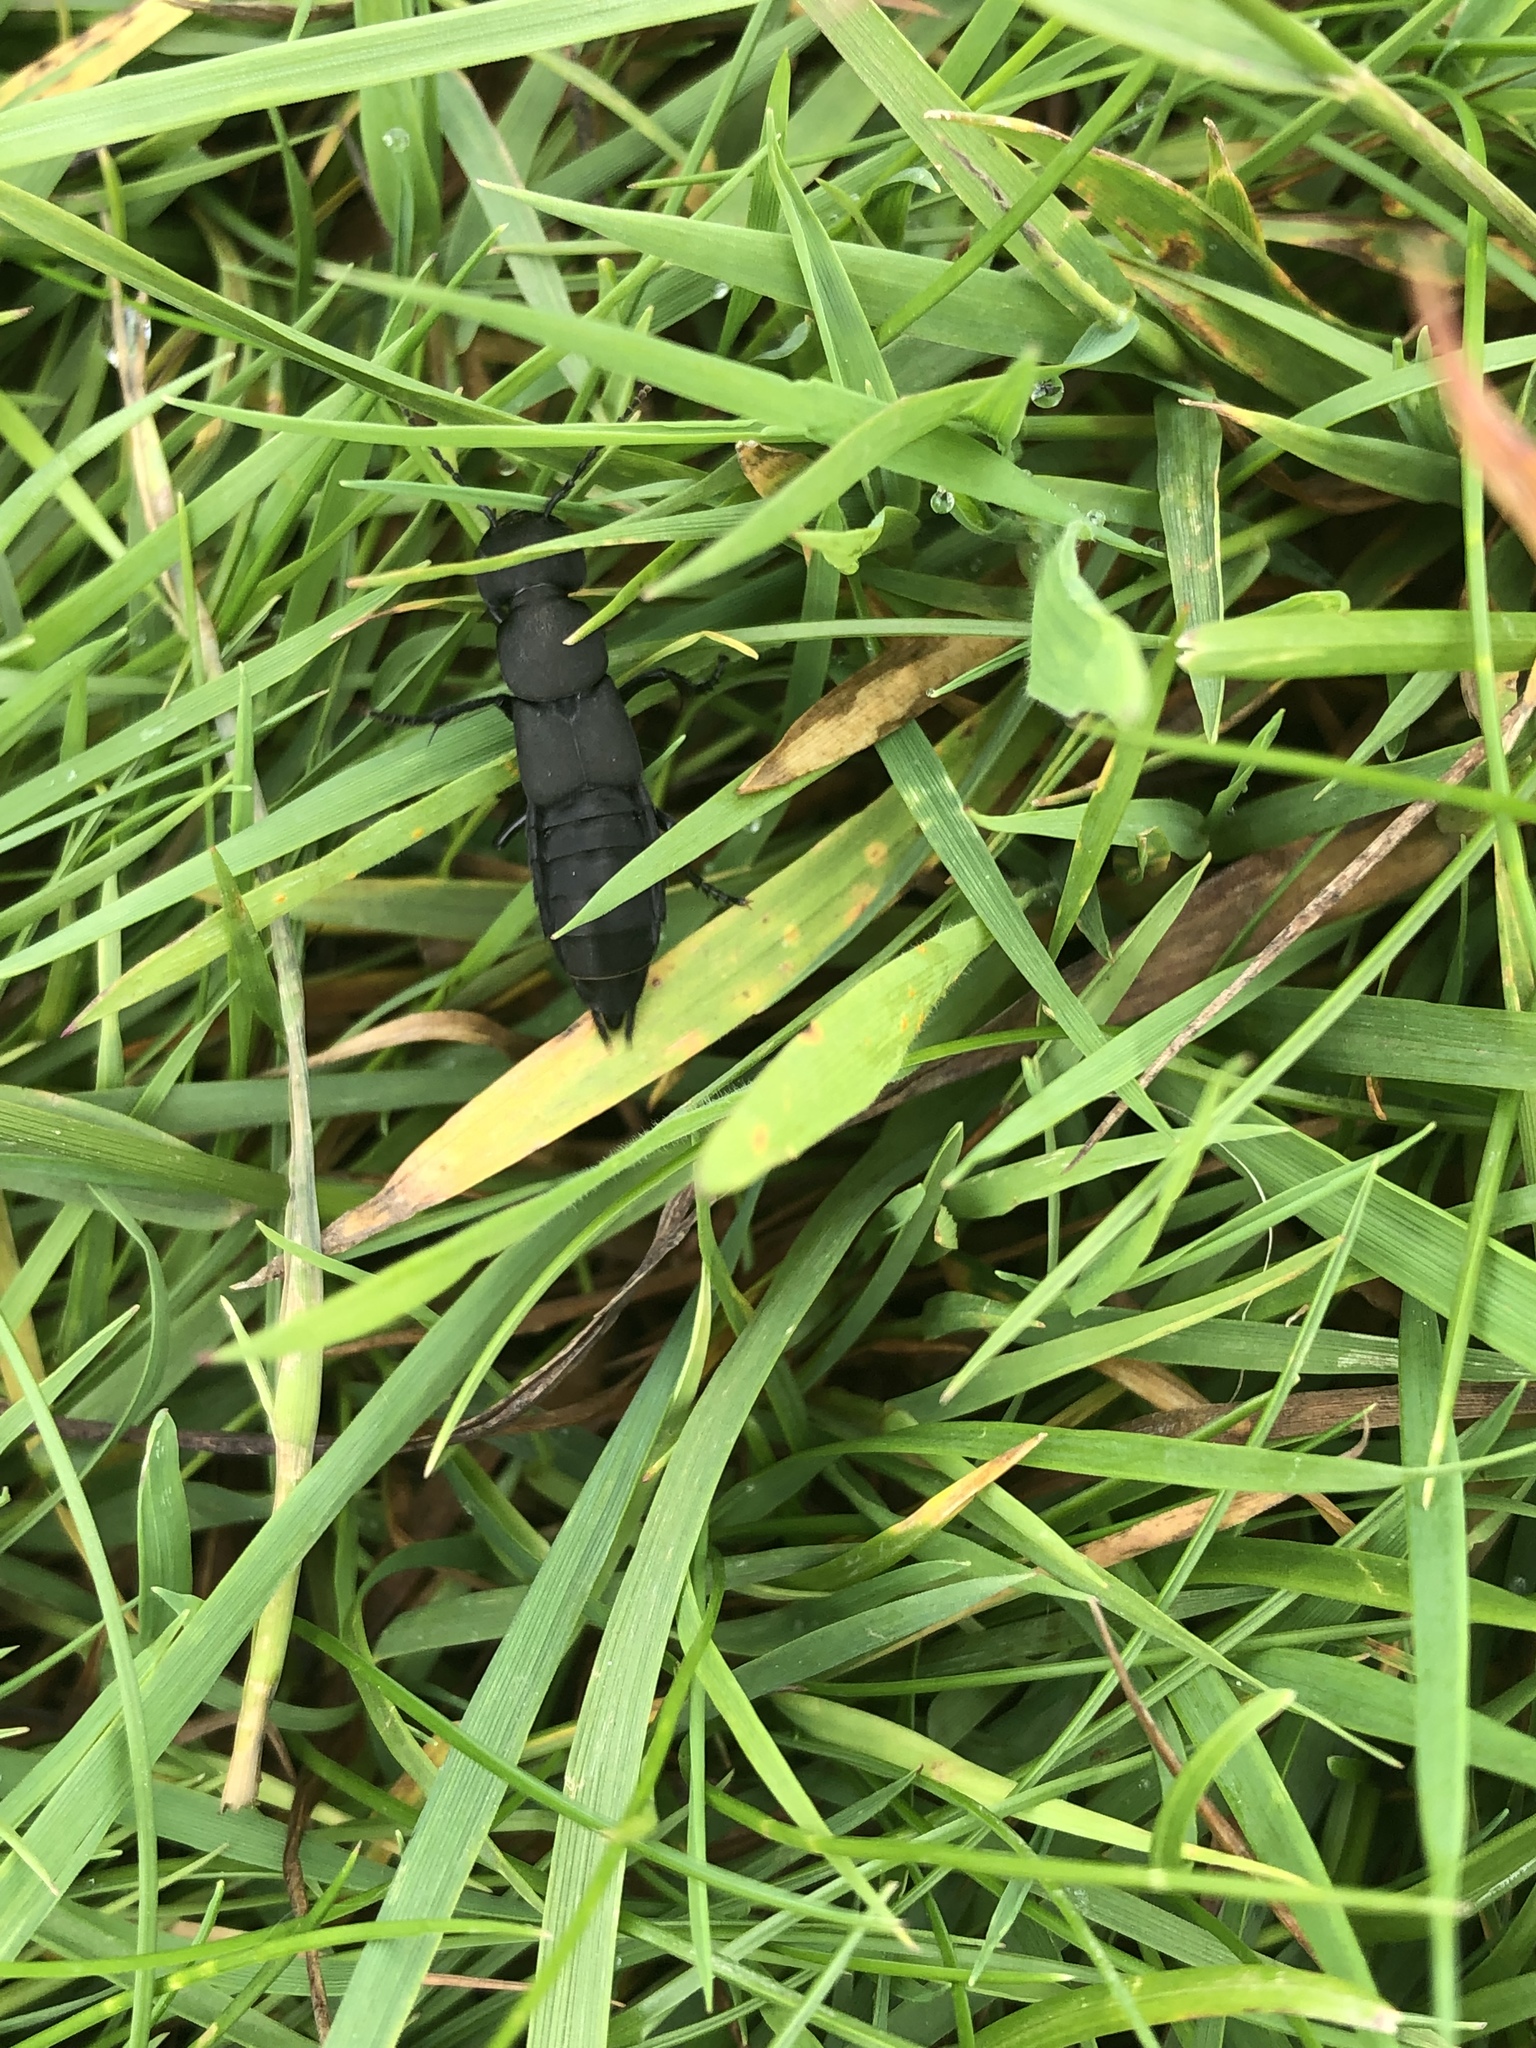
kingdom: Animalia
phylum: Arthropoda
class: Insecta
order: Coleoptera
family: Staphylinidae
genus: Ocypus
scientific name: Ocypus olens
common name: Devil's coach-horse
